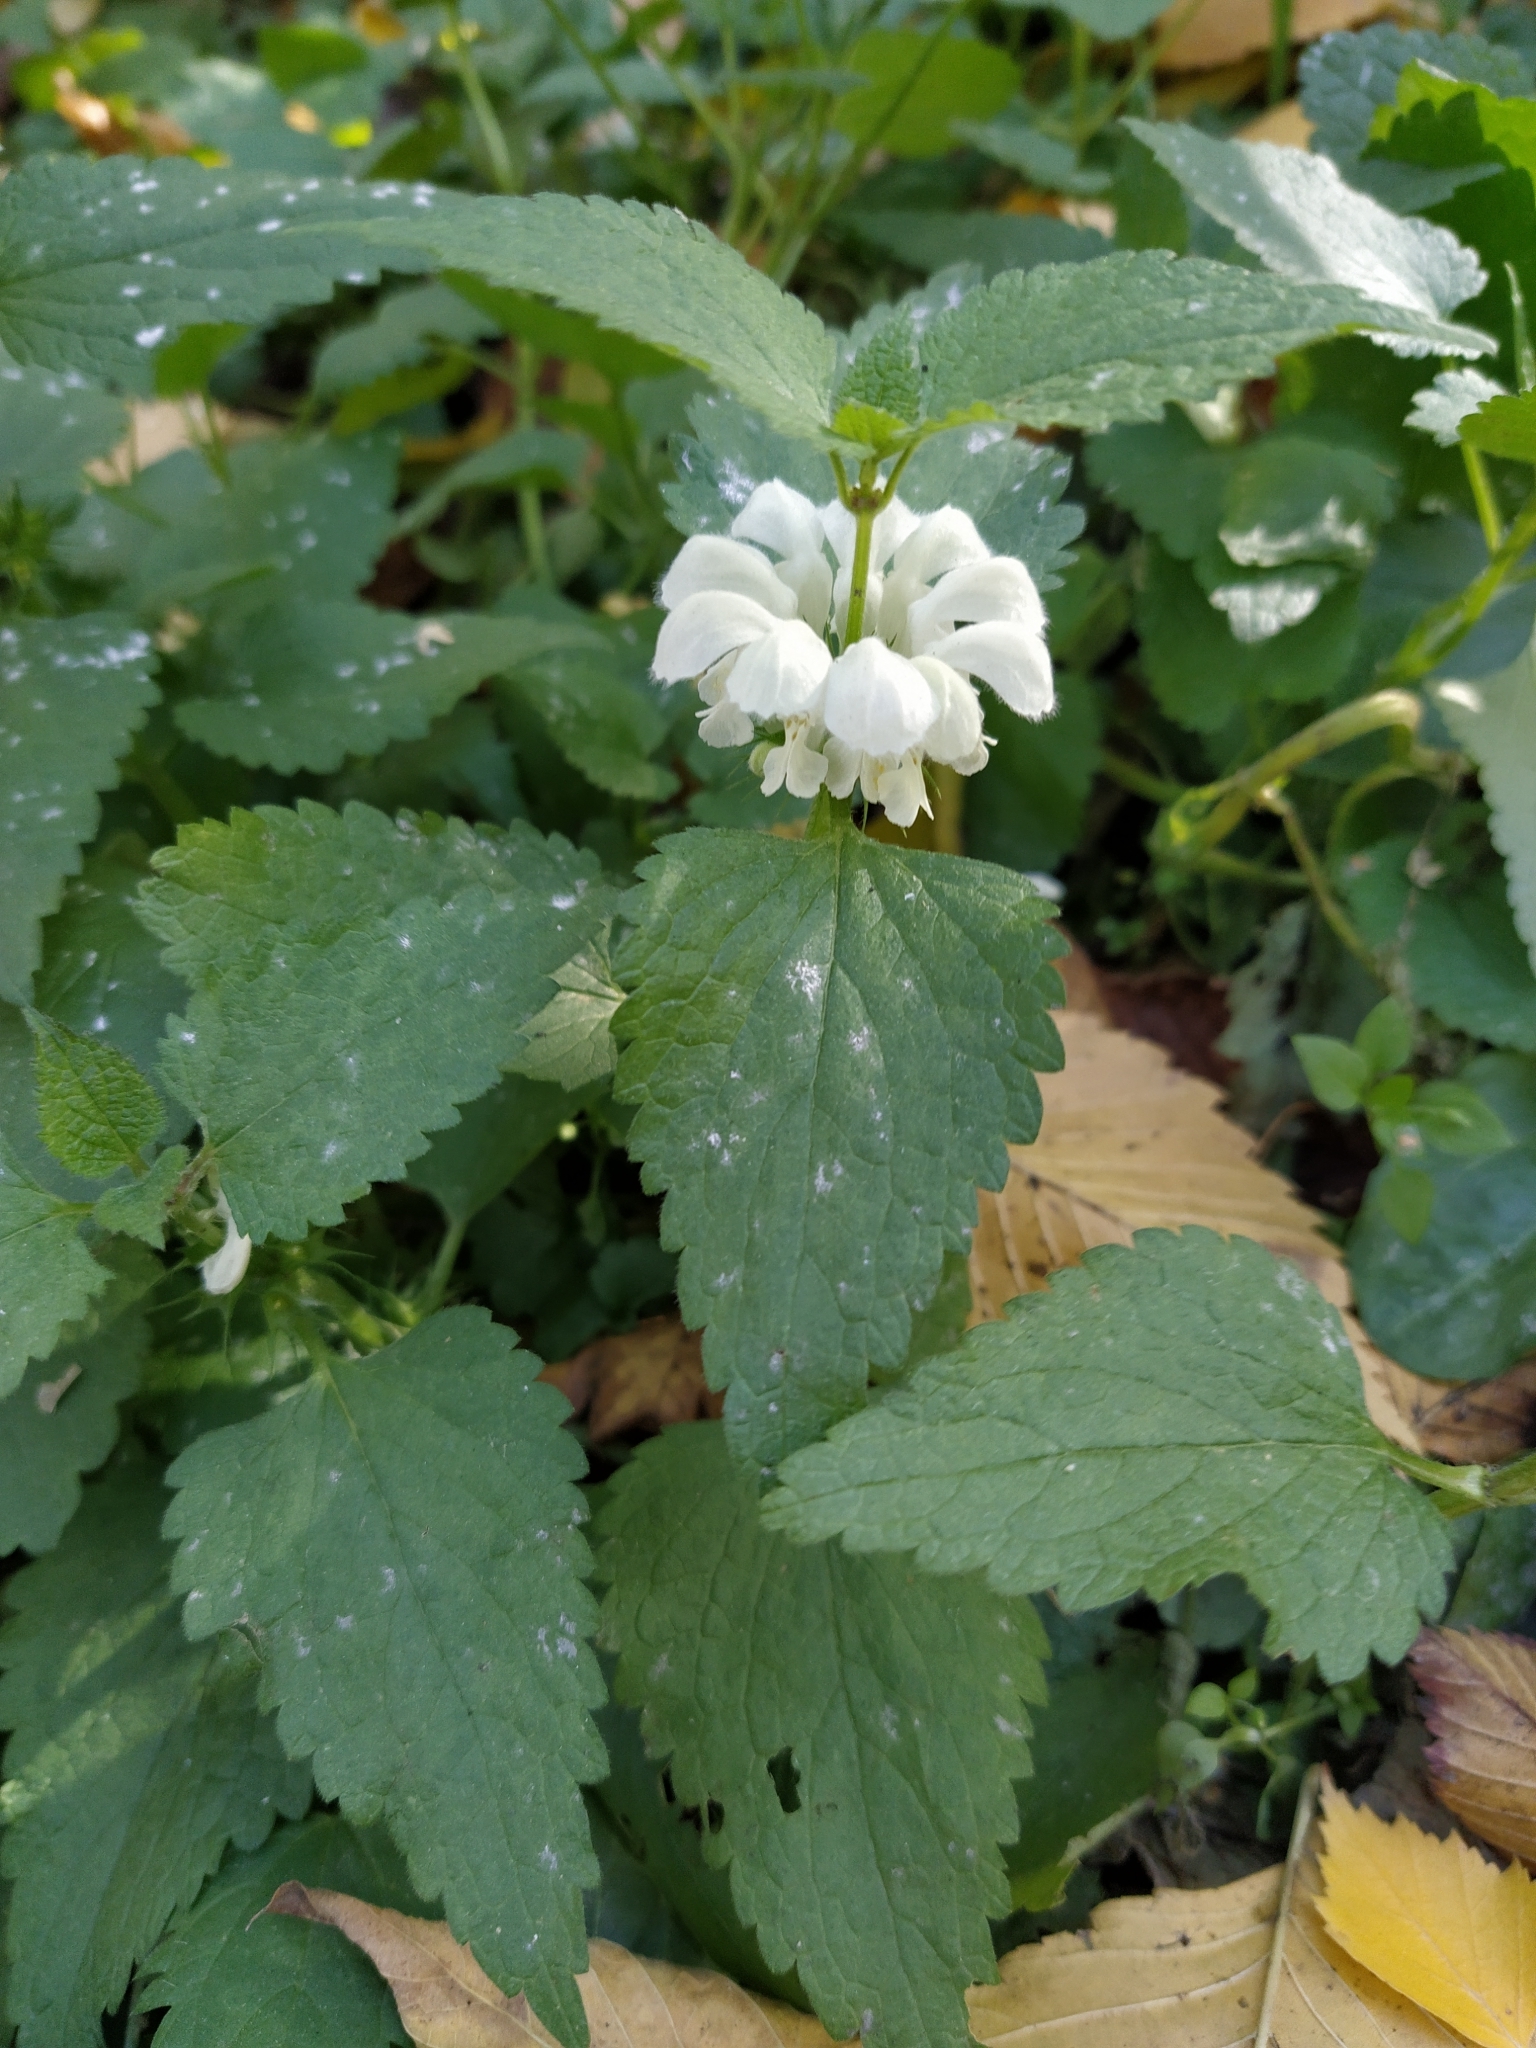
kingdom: Plantae
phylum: Tracheophyta
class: Magnoliopsida
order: Lamiales
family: Lamiaceae
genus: Lamium
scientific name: Lamium album
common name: White dead-nettle
